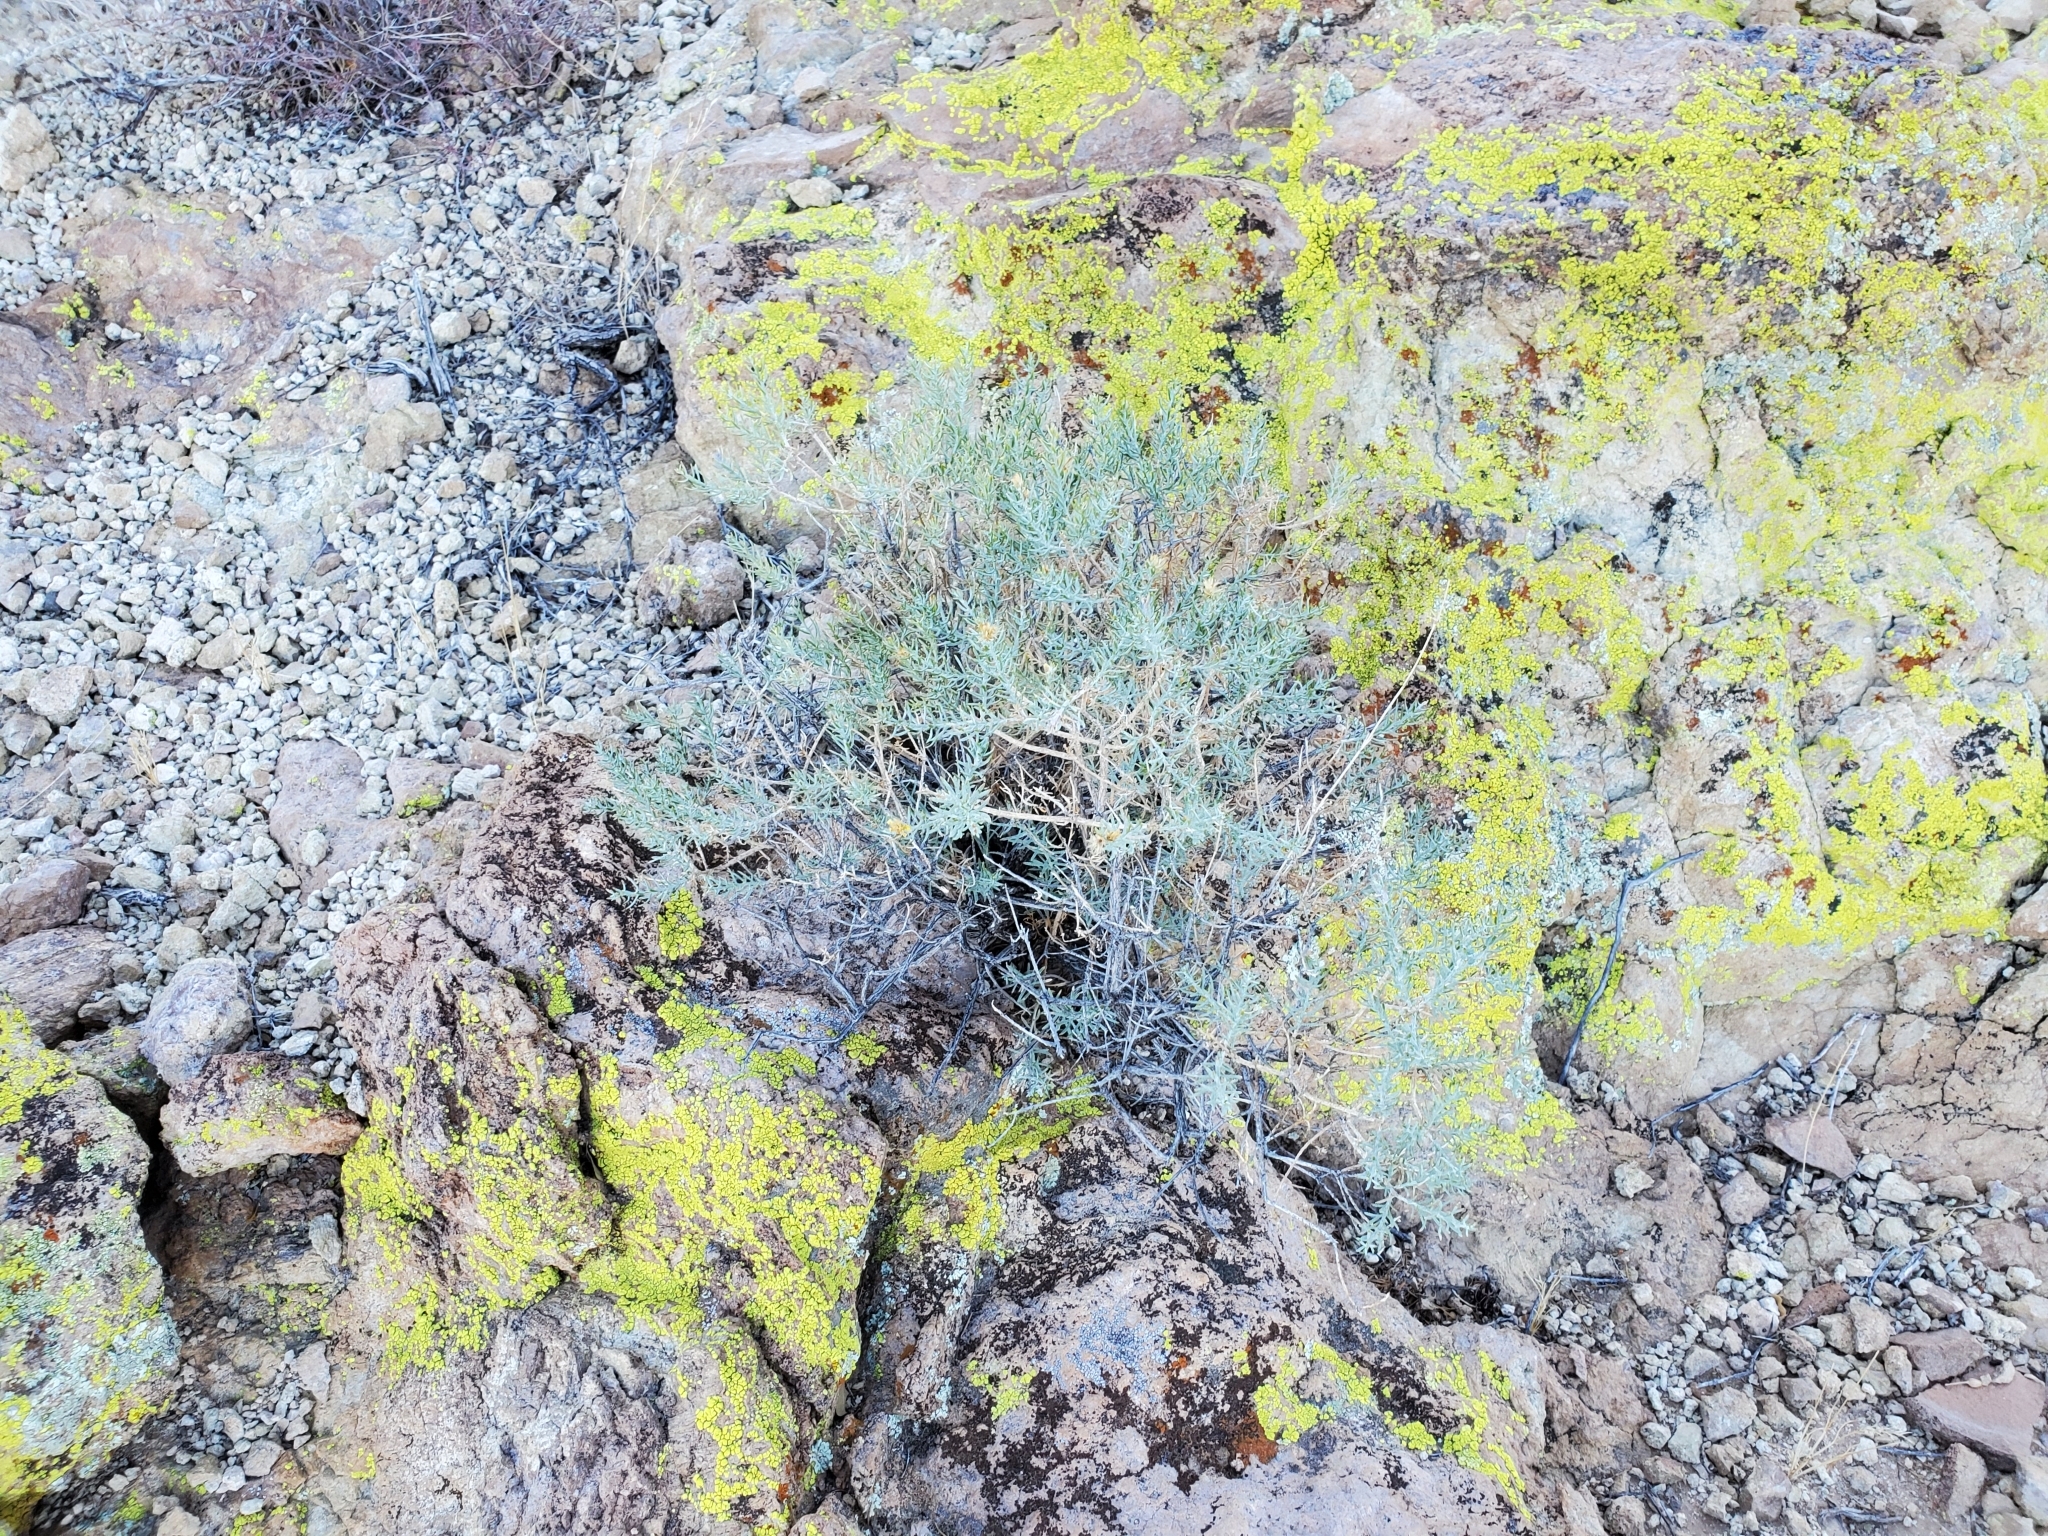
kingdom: Plantae
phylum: Tracheophyta
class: Magnoliopsida
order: Asterales
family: Asteraceae
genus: Ericameria
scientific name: Ericameria laricifolia
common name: Turpentine-bush
